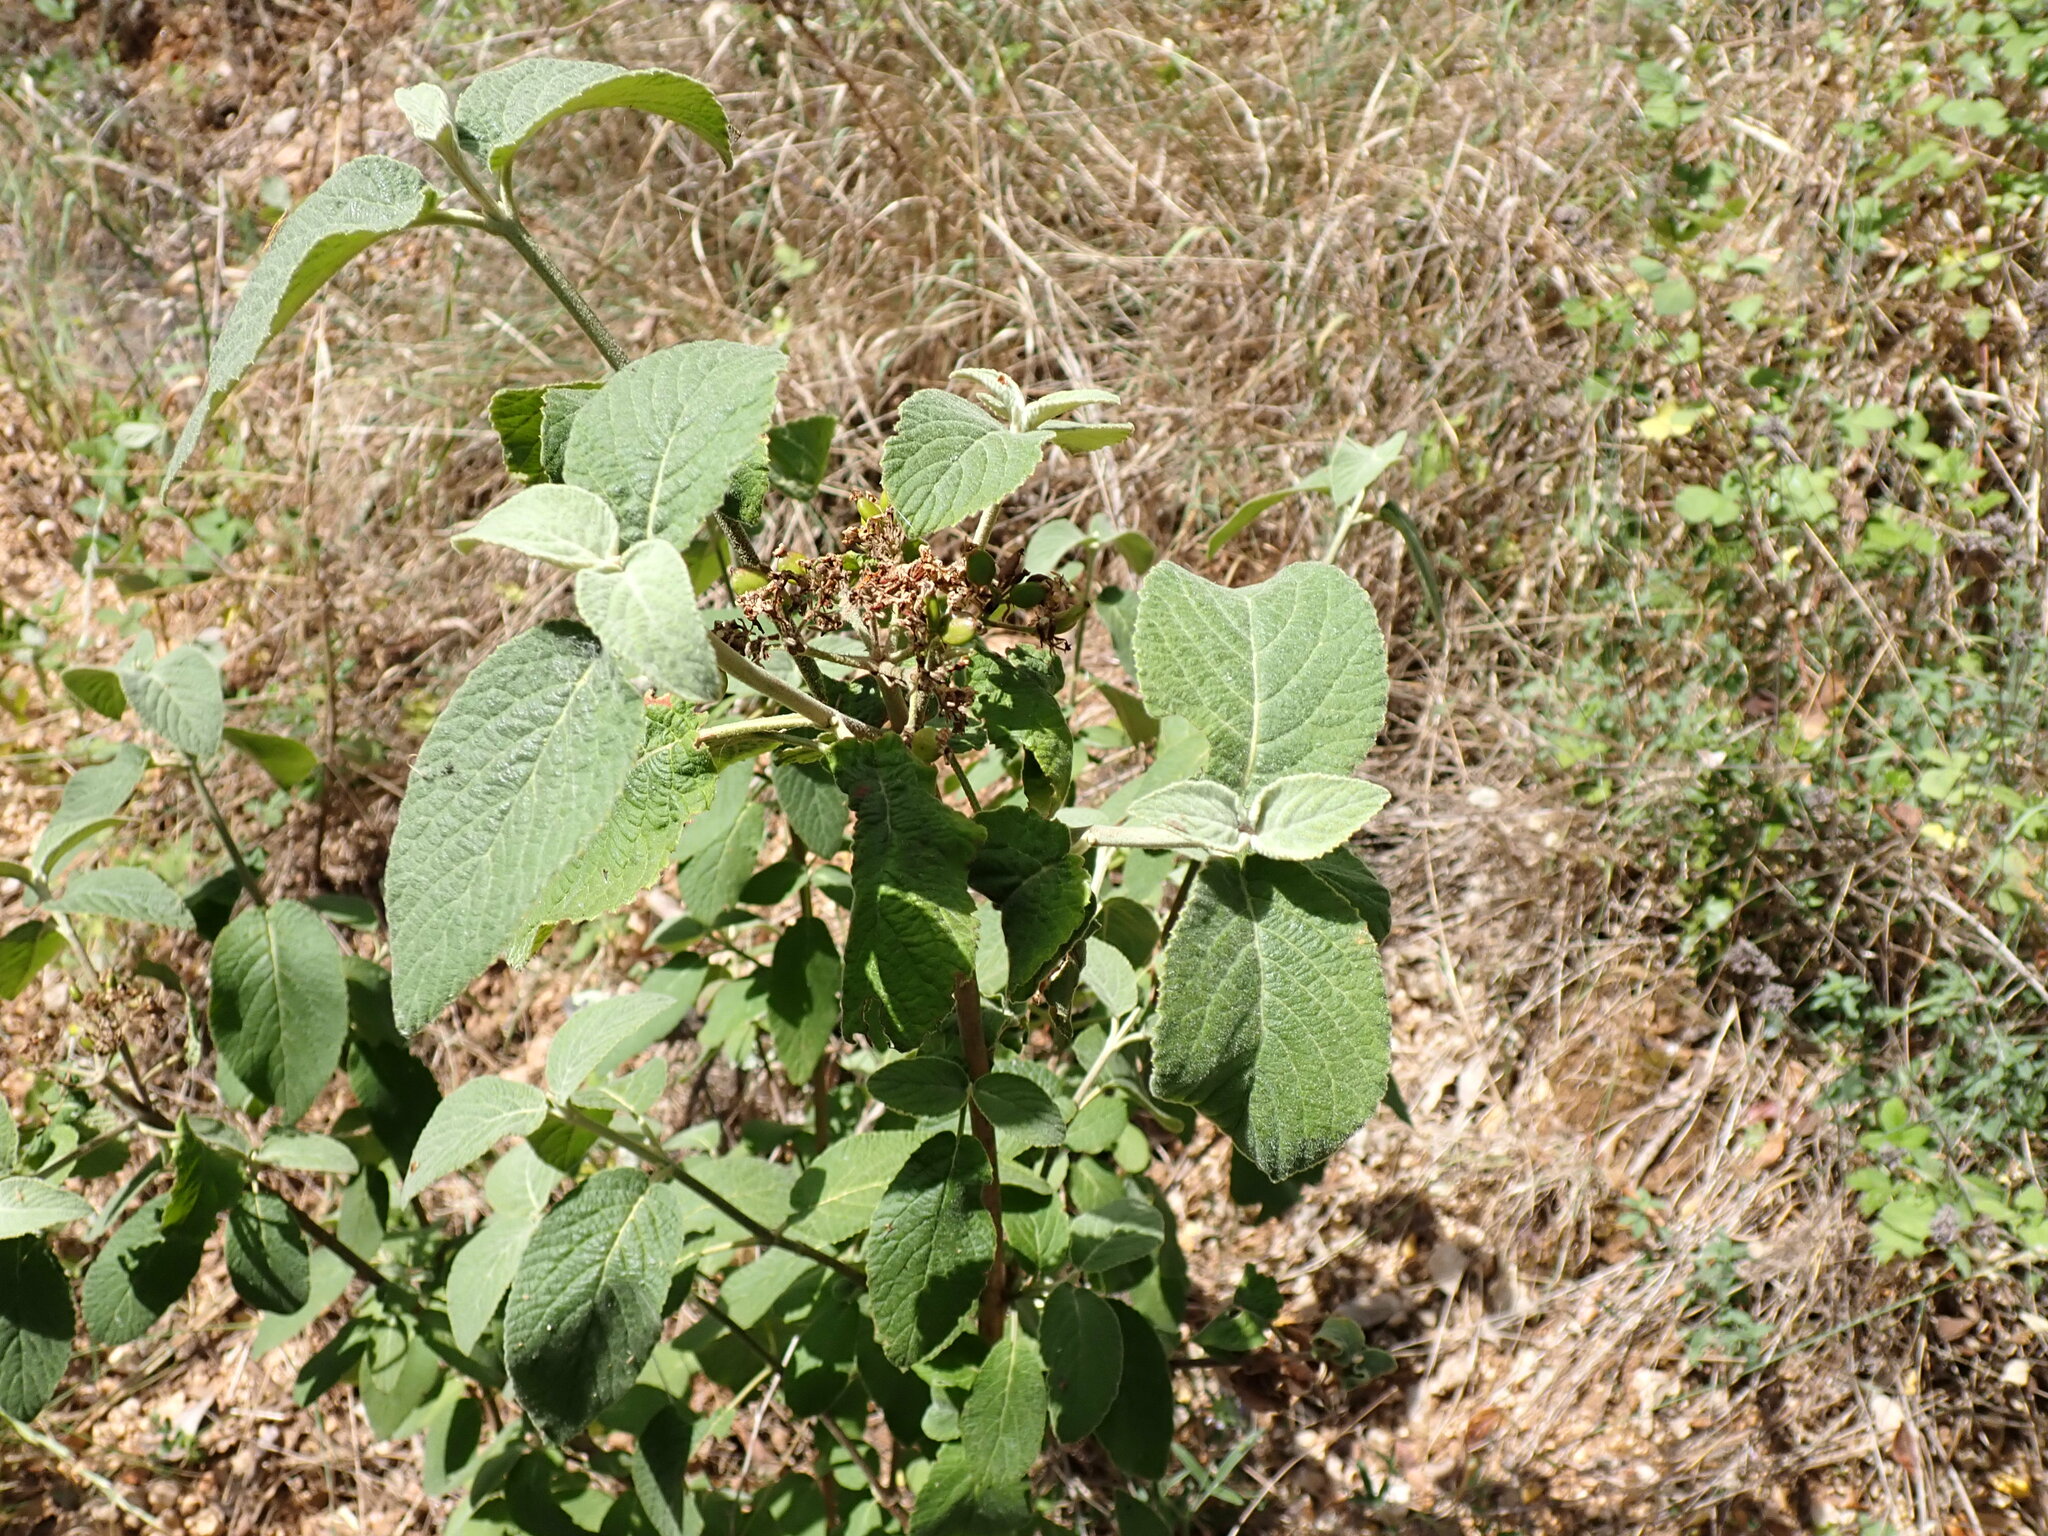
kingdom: Plantae
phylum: Tracheophyta
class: Magnoliopsida
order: Dipsacales
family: Viburnaceae
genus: Viburnum
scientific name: Viburnum lantana
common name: Wayfaring tree
